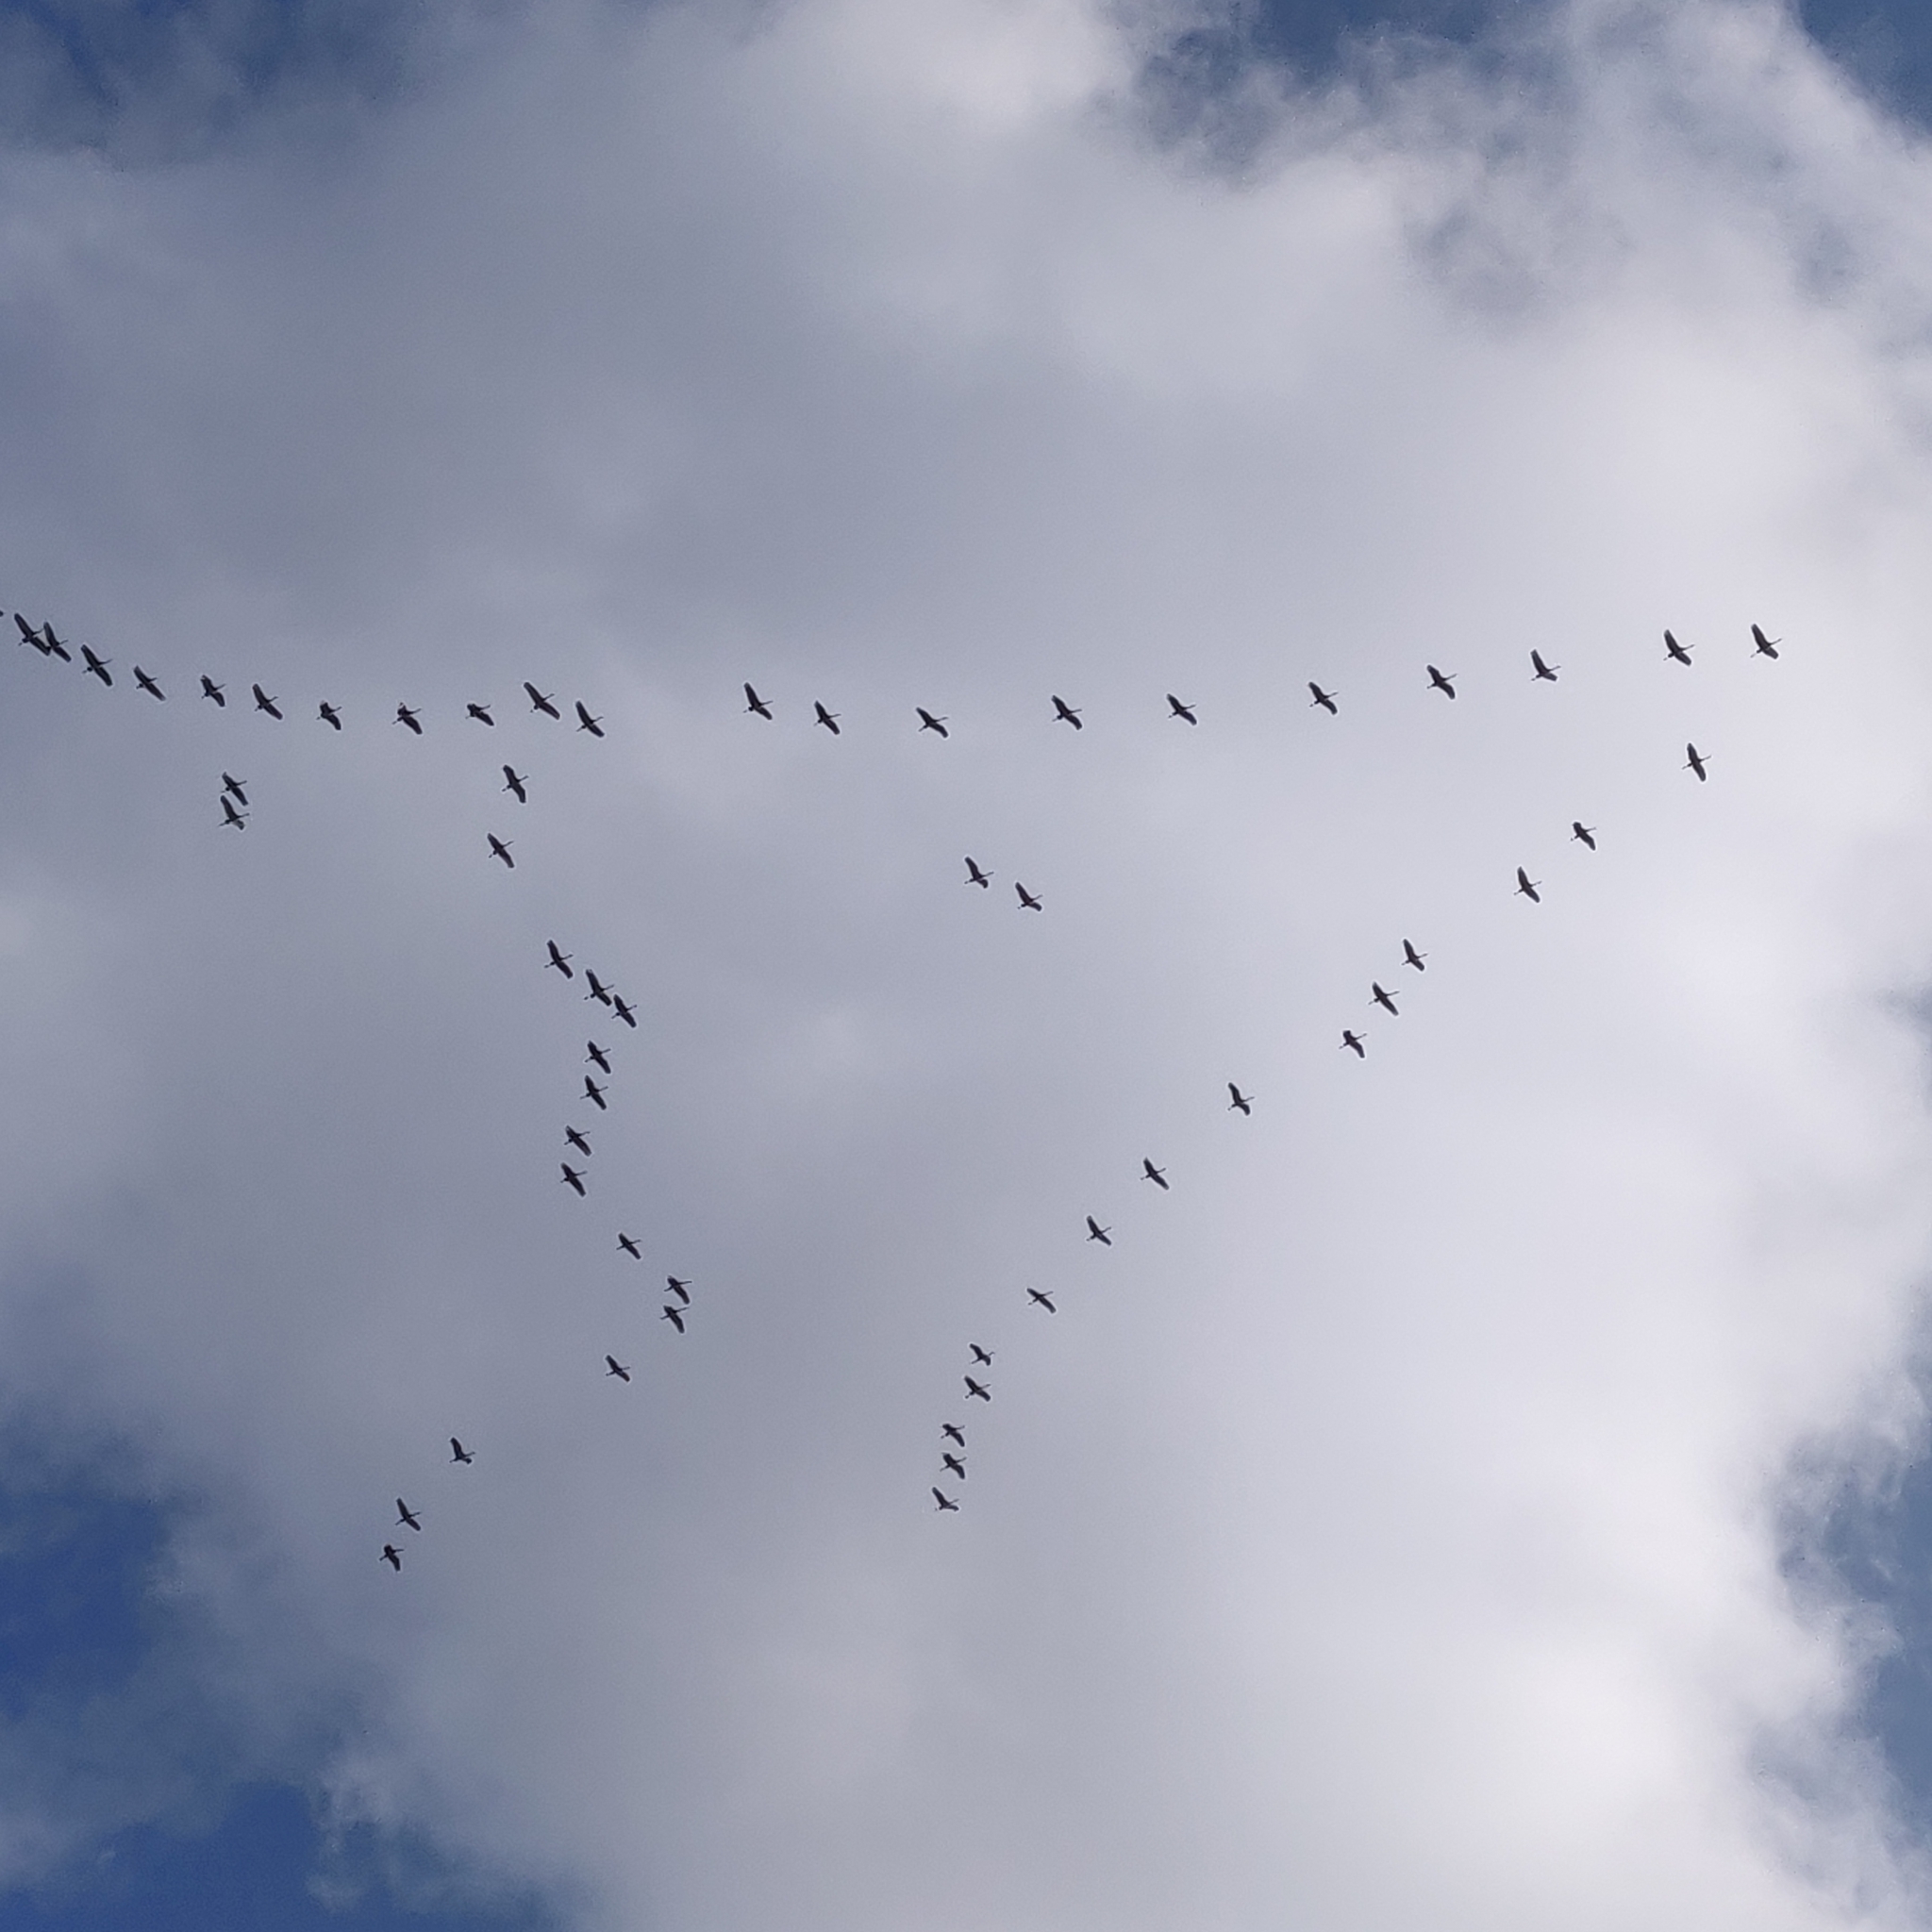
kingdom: Animalia
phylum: Chordata
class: Aves
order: Gruiformes
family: Gruidae
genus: Grus
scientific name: Grus canadensis
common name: Sandhill crane
